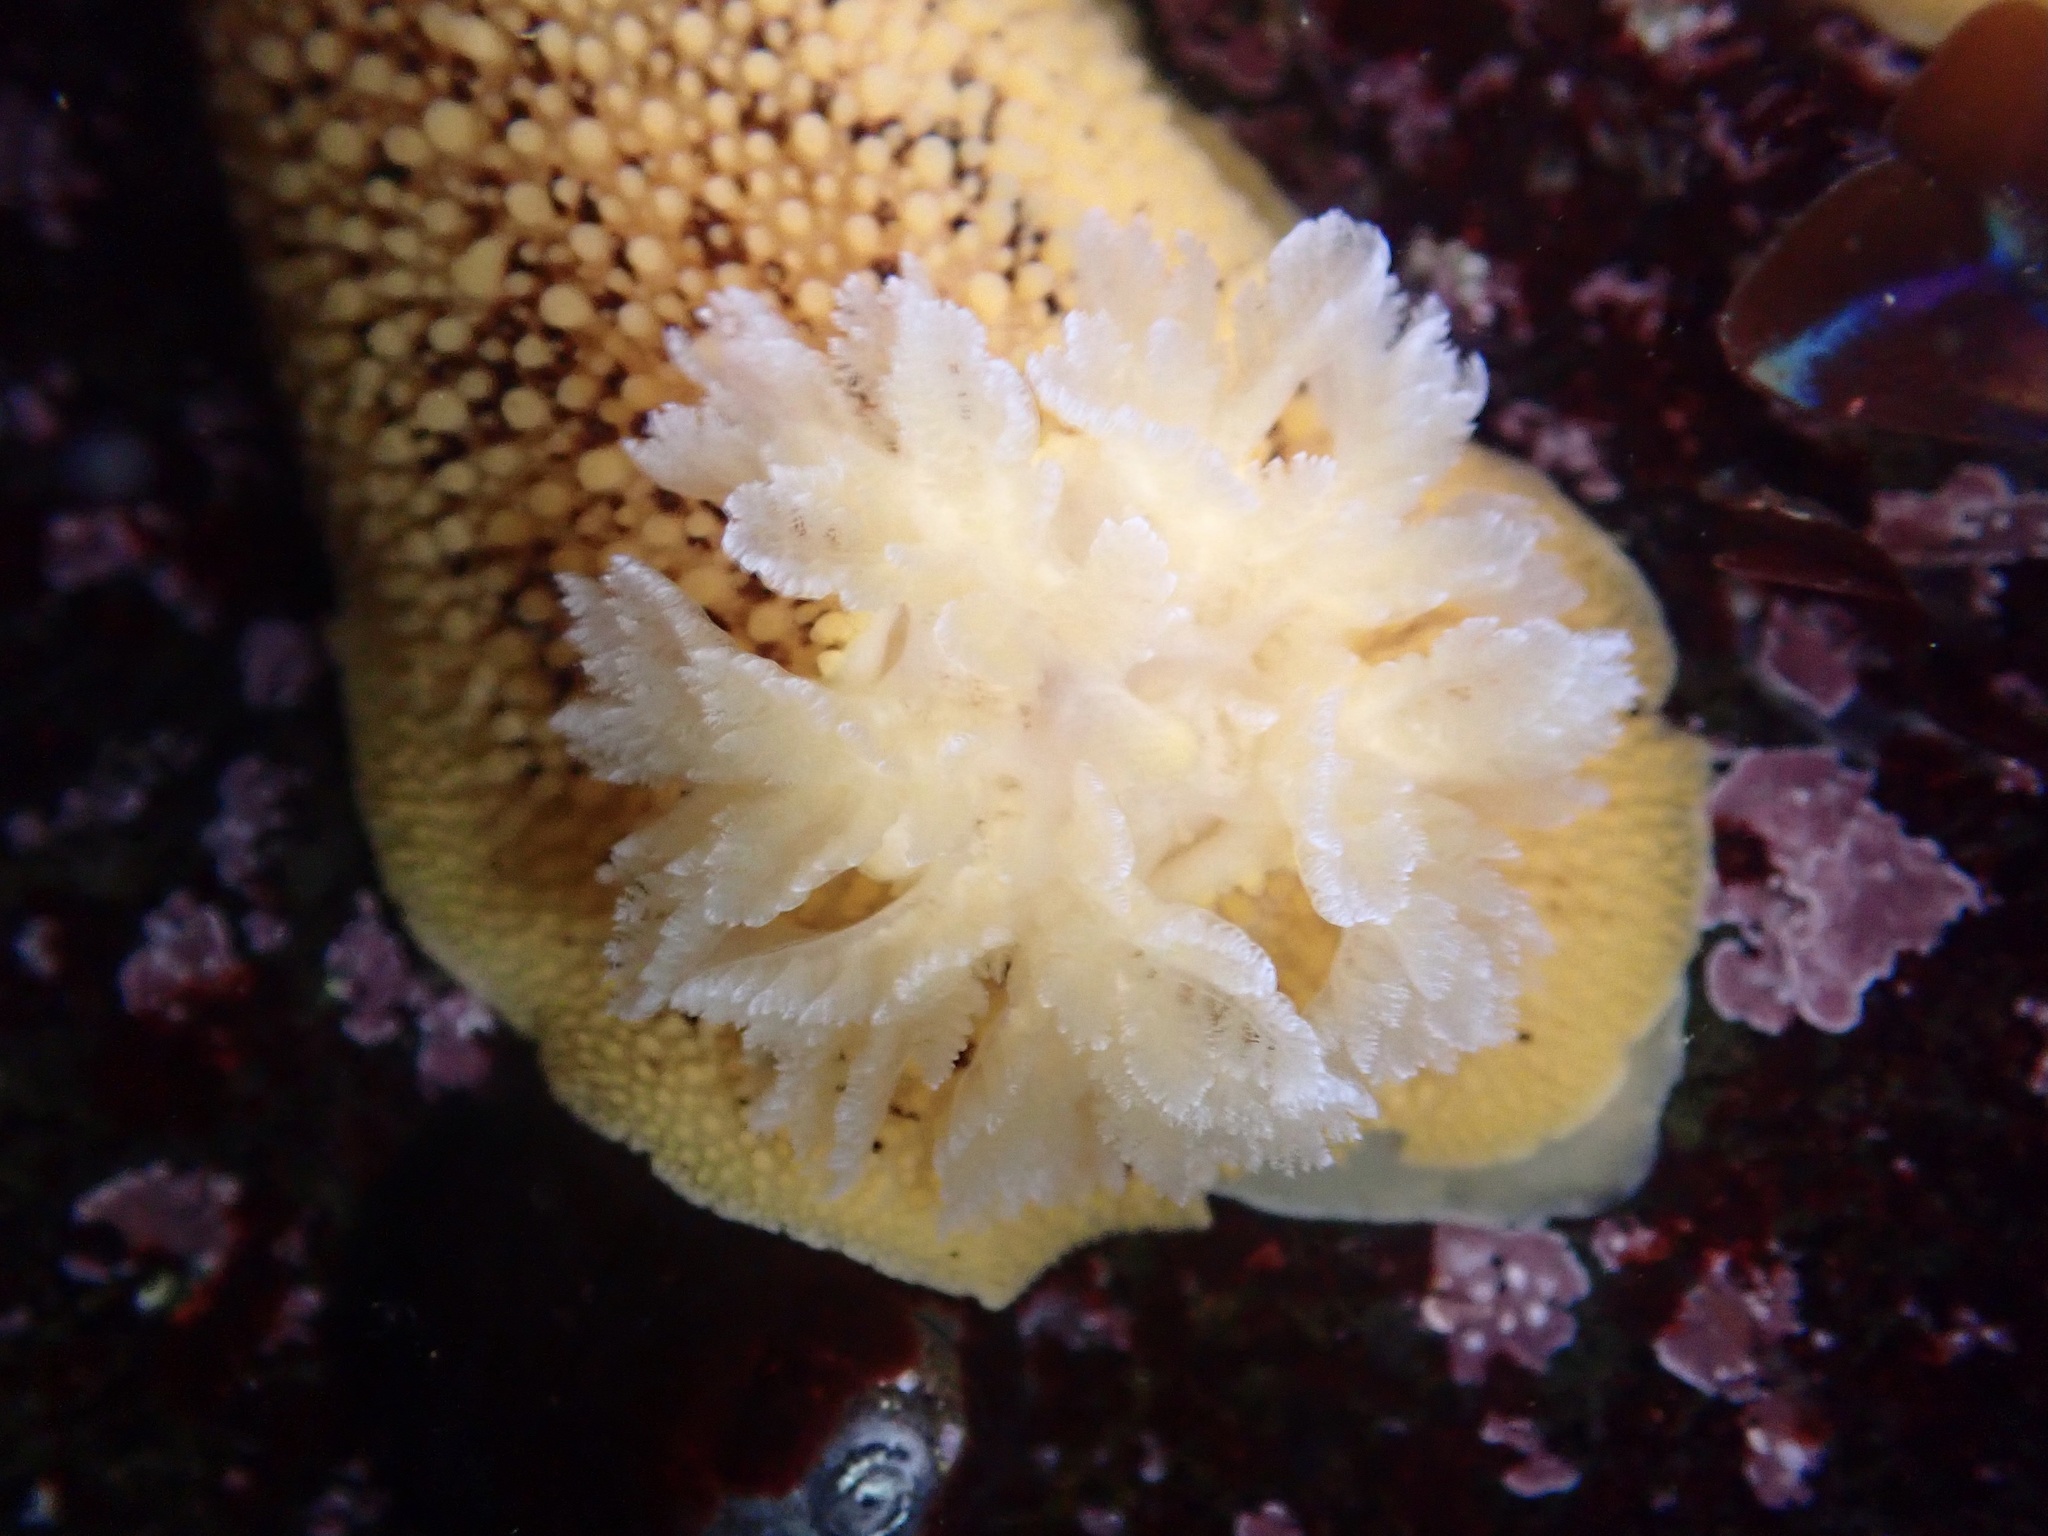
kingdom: Animalia
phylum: Mollusca
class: Gastropoda
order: Nudibranchia
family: Discodorididae
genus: Peltodoris
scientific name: Peltodoris nobilis
